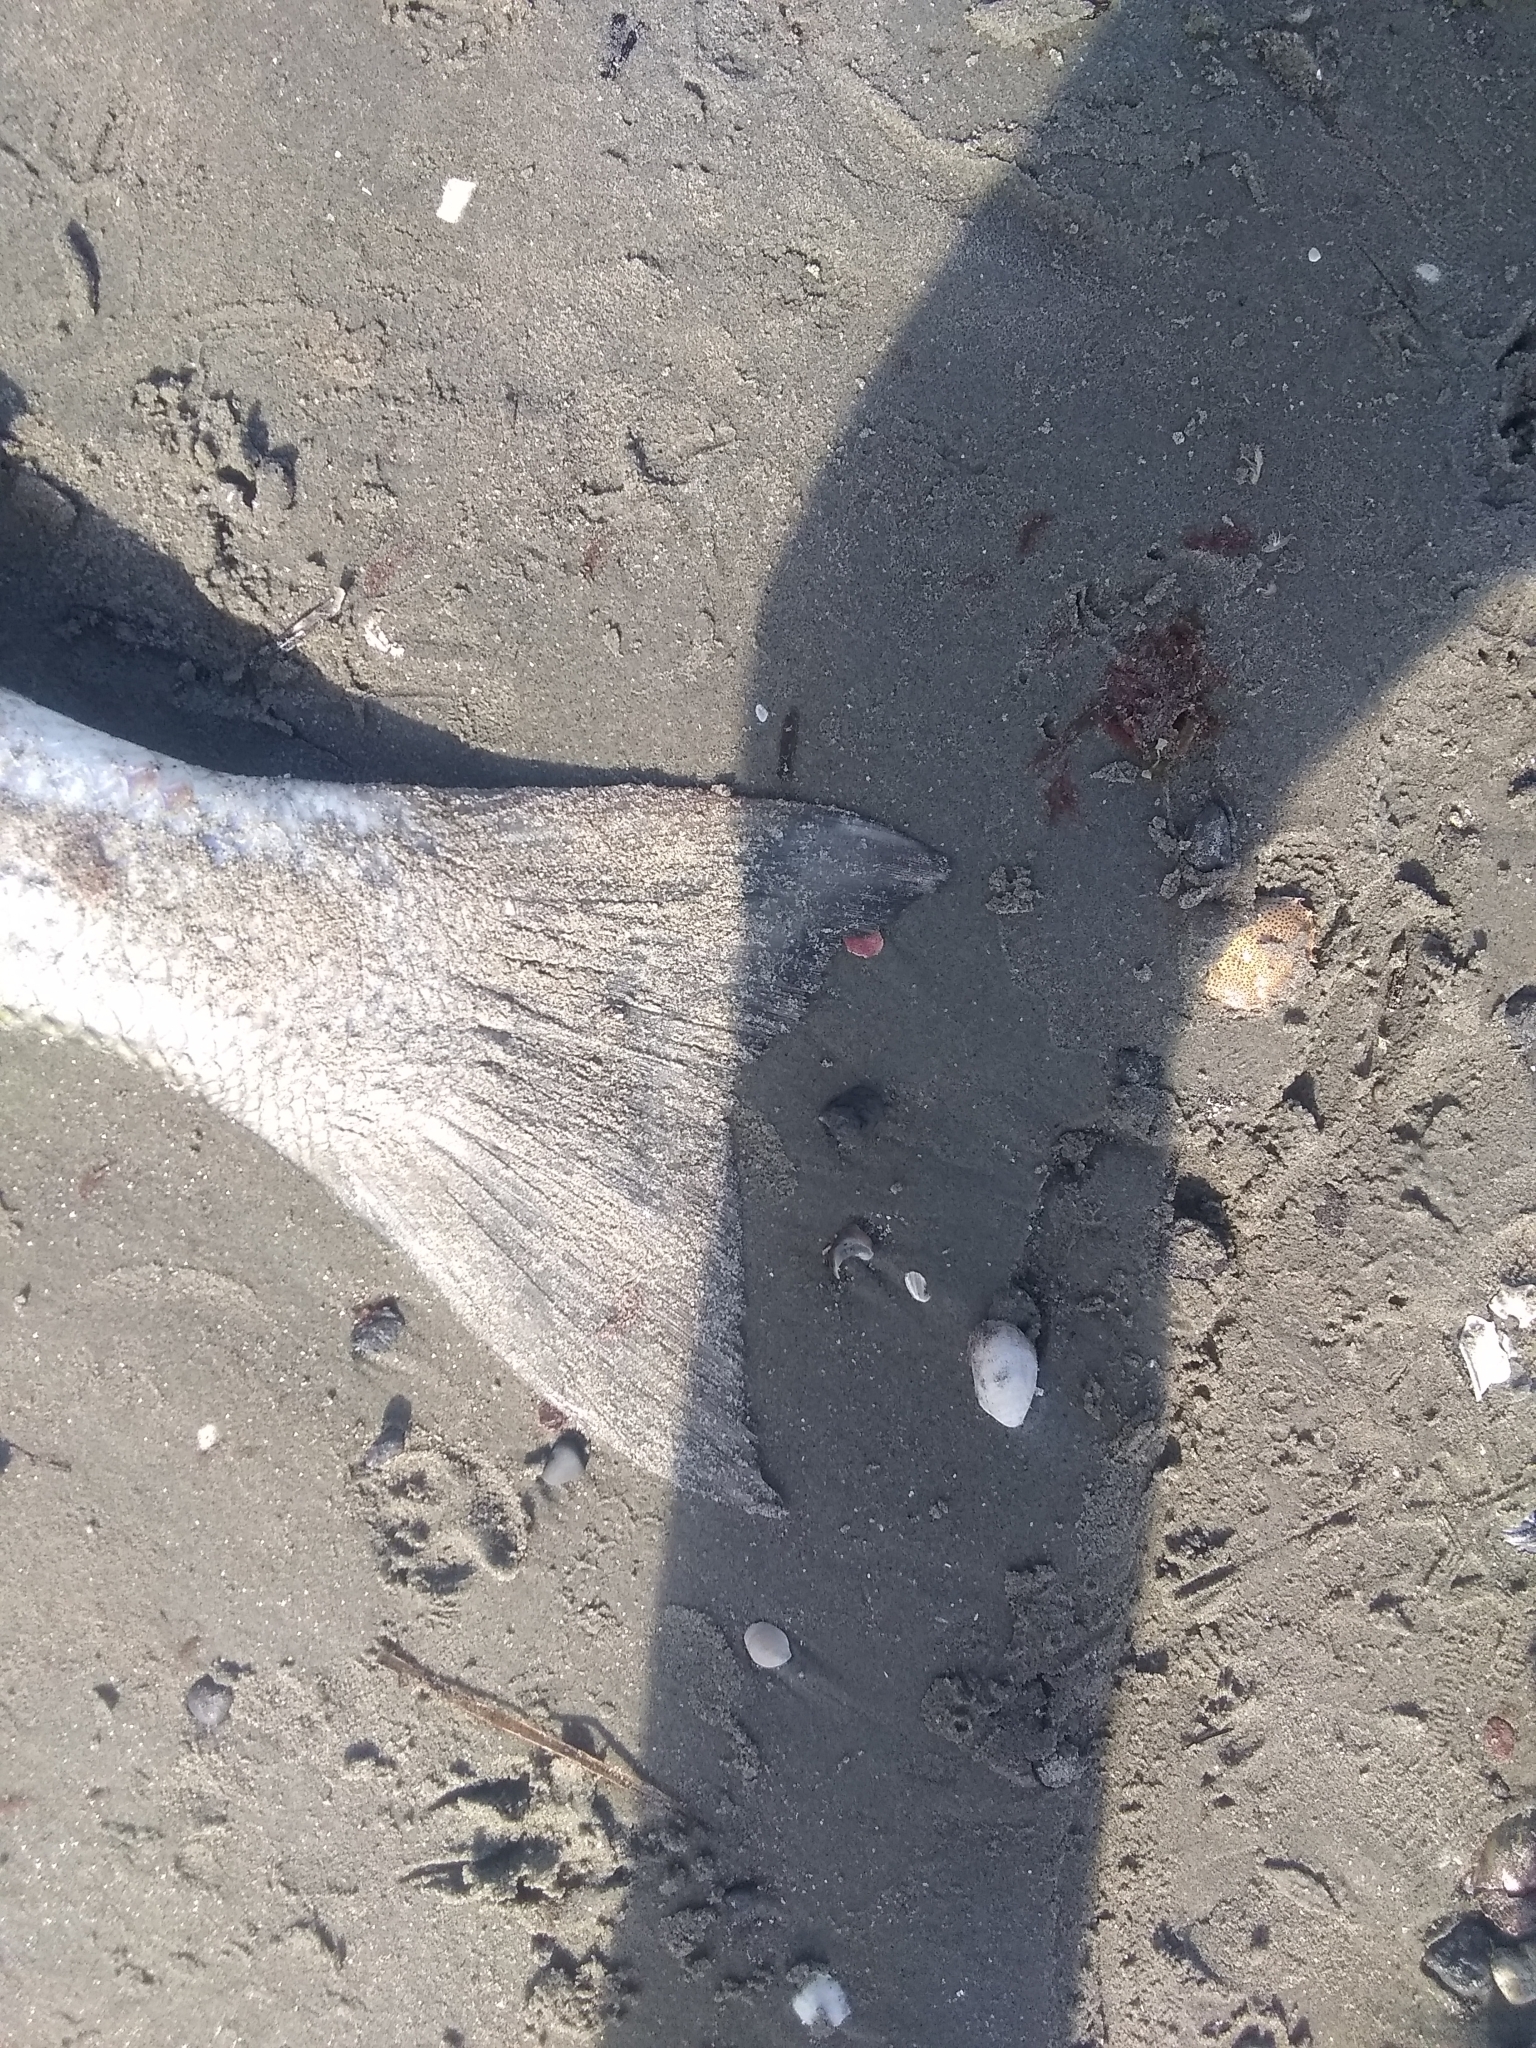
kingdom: Animalia
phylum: Chordata
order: Perciformes
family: Moronidae
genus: Morone
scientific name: Morone saxatilis
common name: Striped bass
